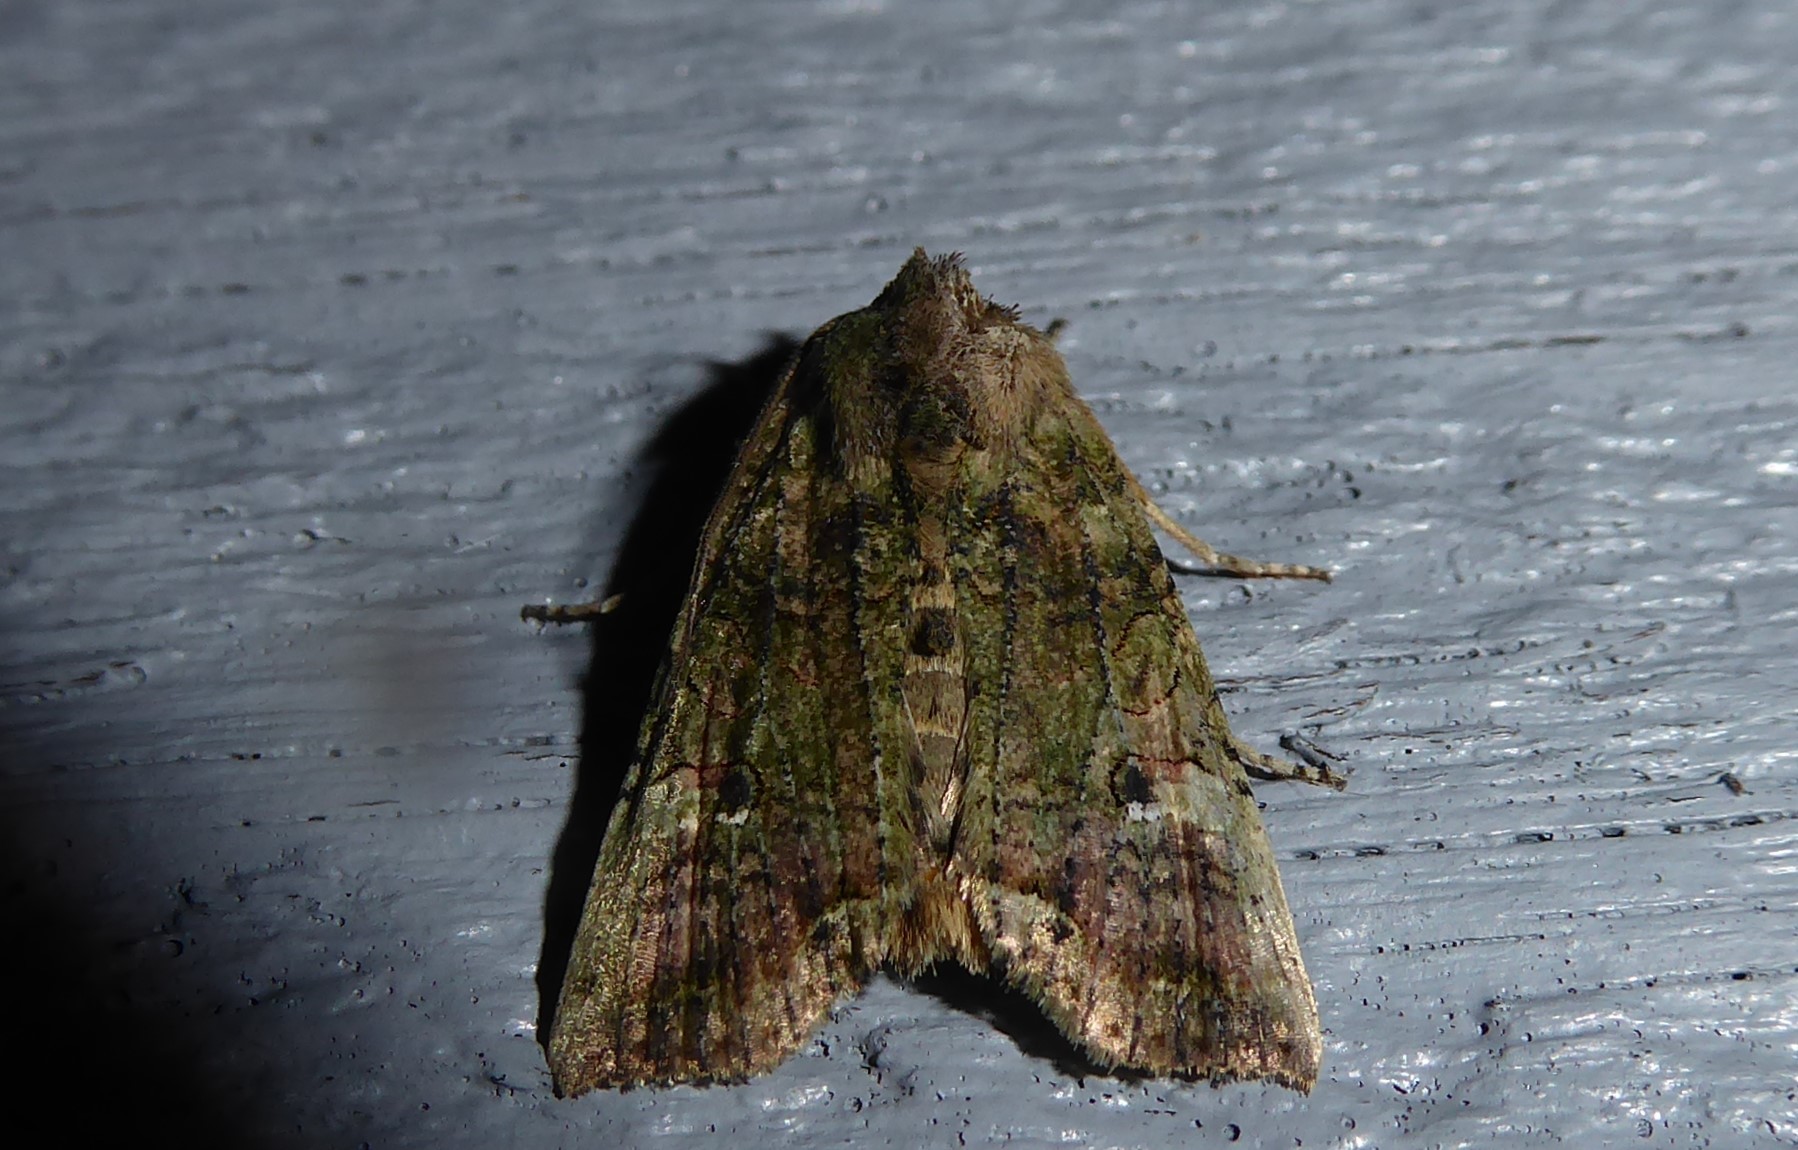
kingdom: Animalia
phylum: Arthropoda
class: Insecta
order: Lepidoptera
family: Noctuidae
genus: Meterana
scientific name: Meterana levis
